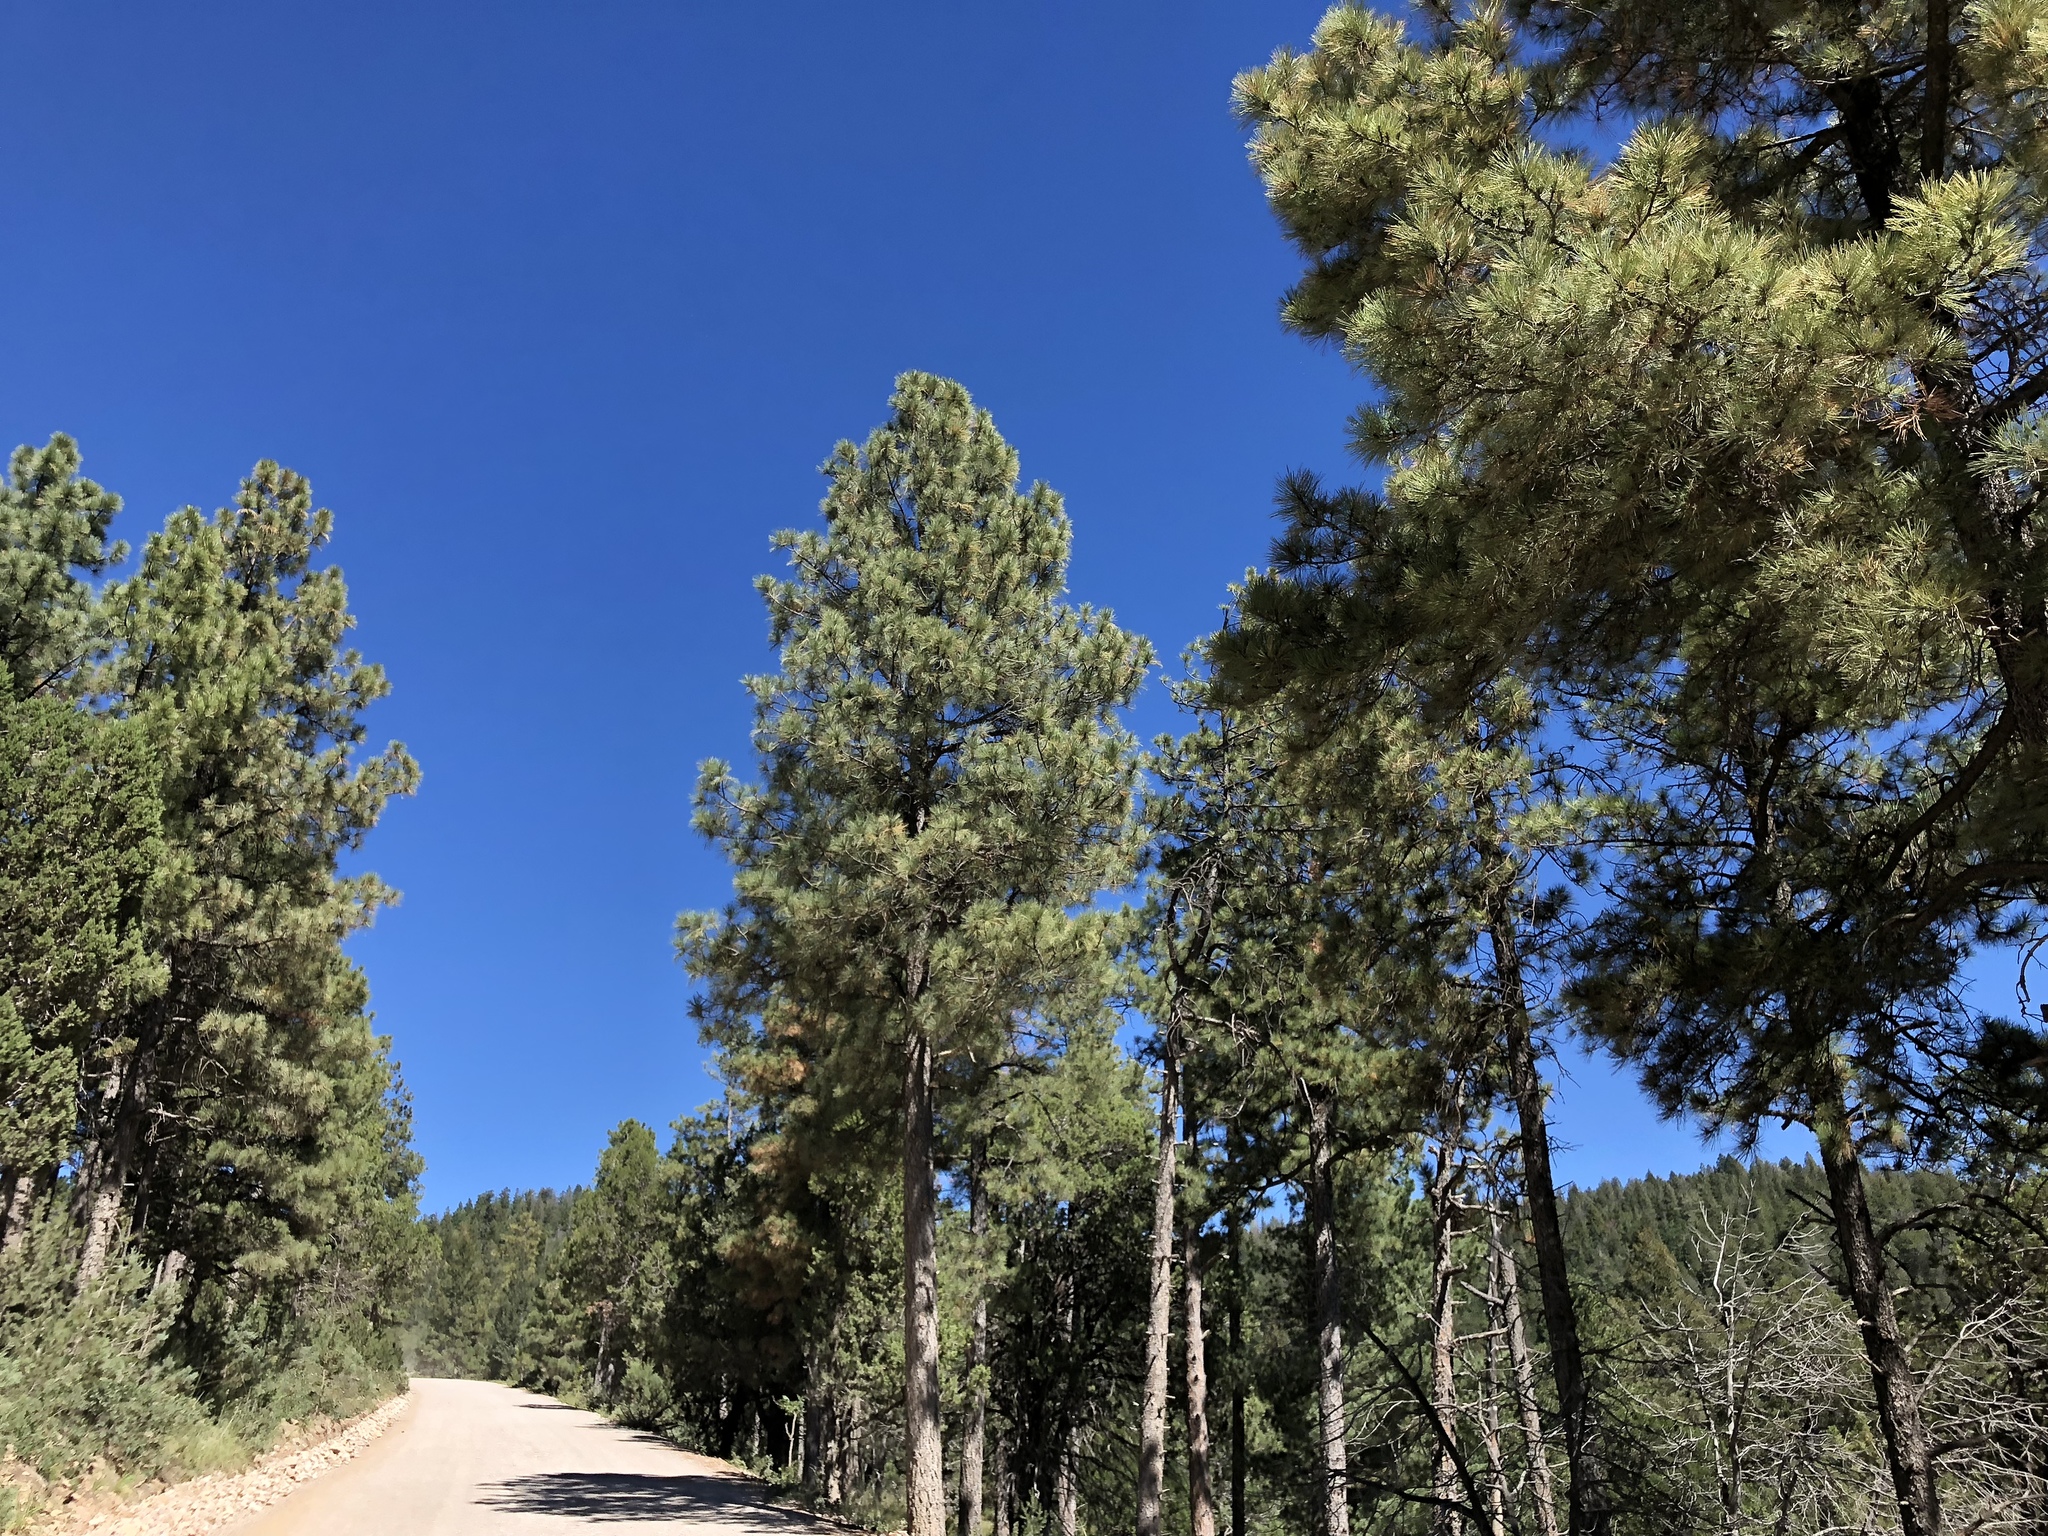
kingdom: Plantae
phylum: Tracheophyta
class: Pinopsida
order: Pinales
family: Pinaceae
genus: Pinus
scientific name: Pinus ponderosa
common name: Western yellow-pine
